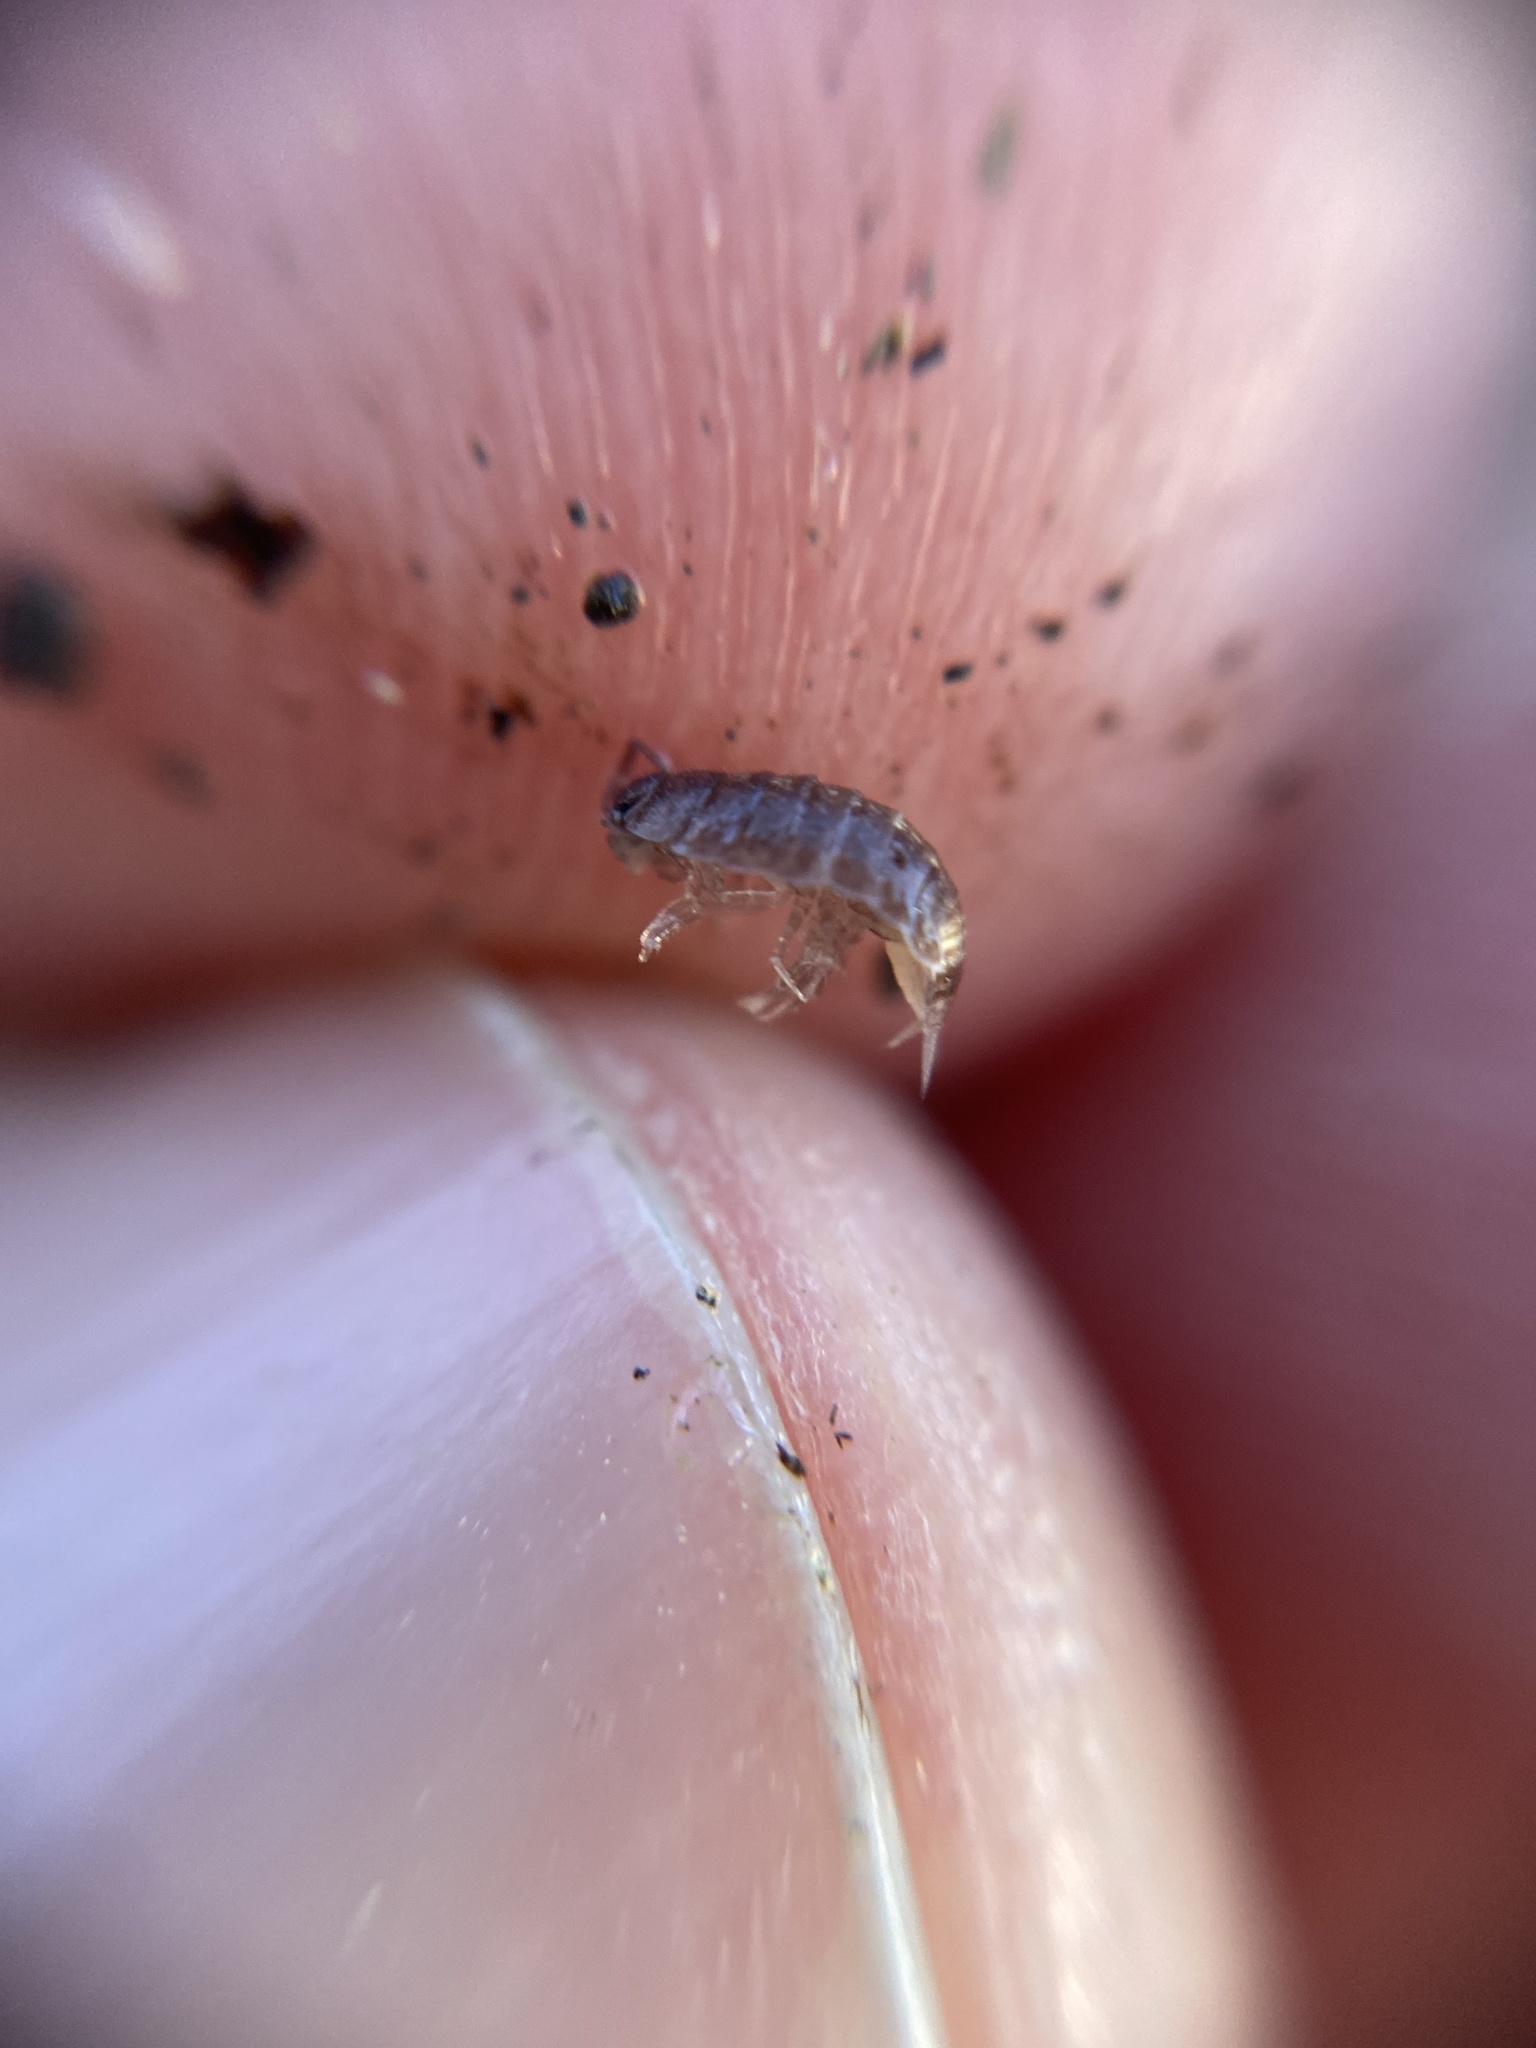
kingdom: Animalia
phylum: Arthropoda
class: Malacostraca
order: Isopoda
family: Trichoniscidae
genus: Hyloniscus
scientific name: Hyloniscus riparius
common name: Isopod
